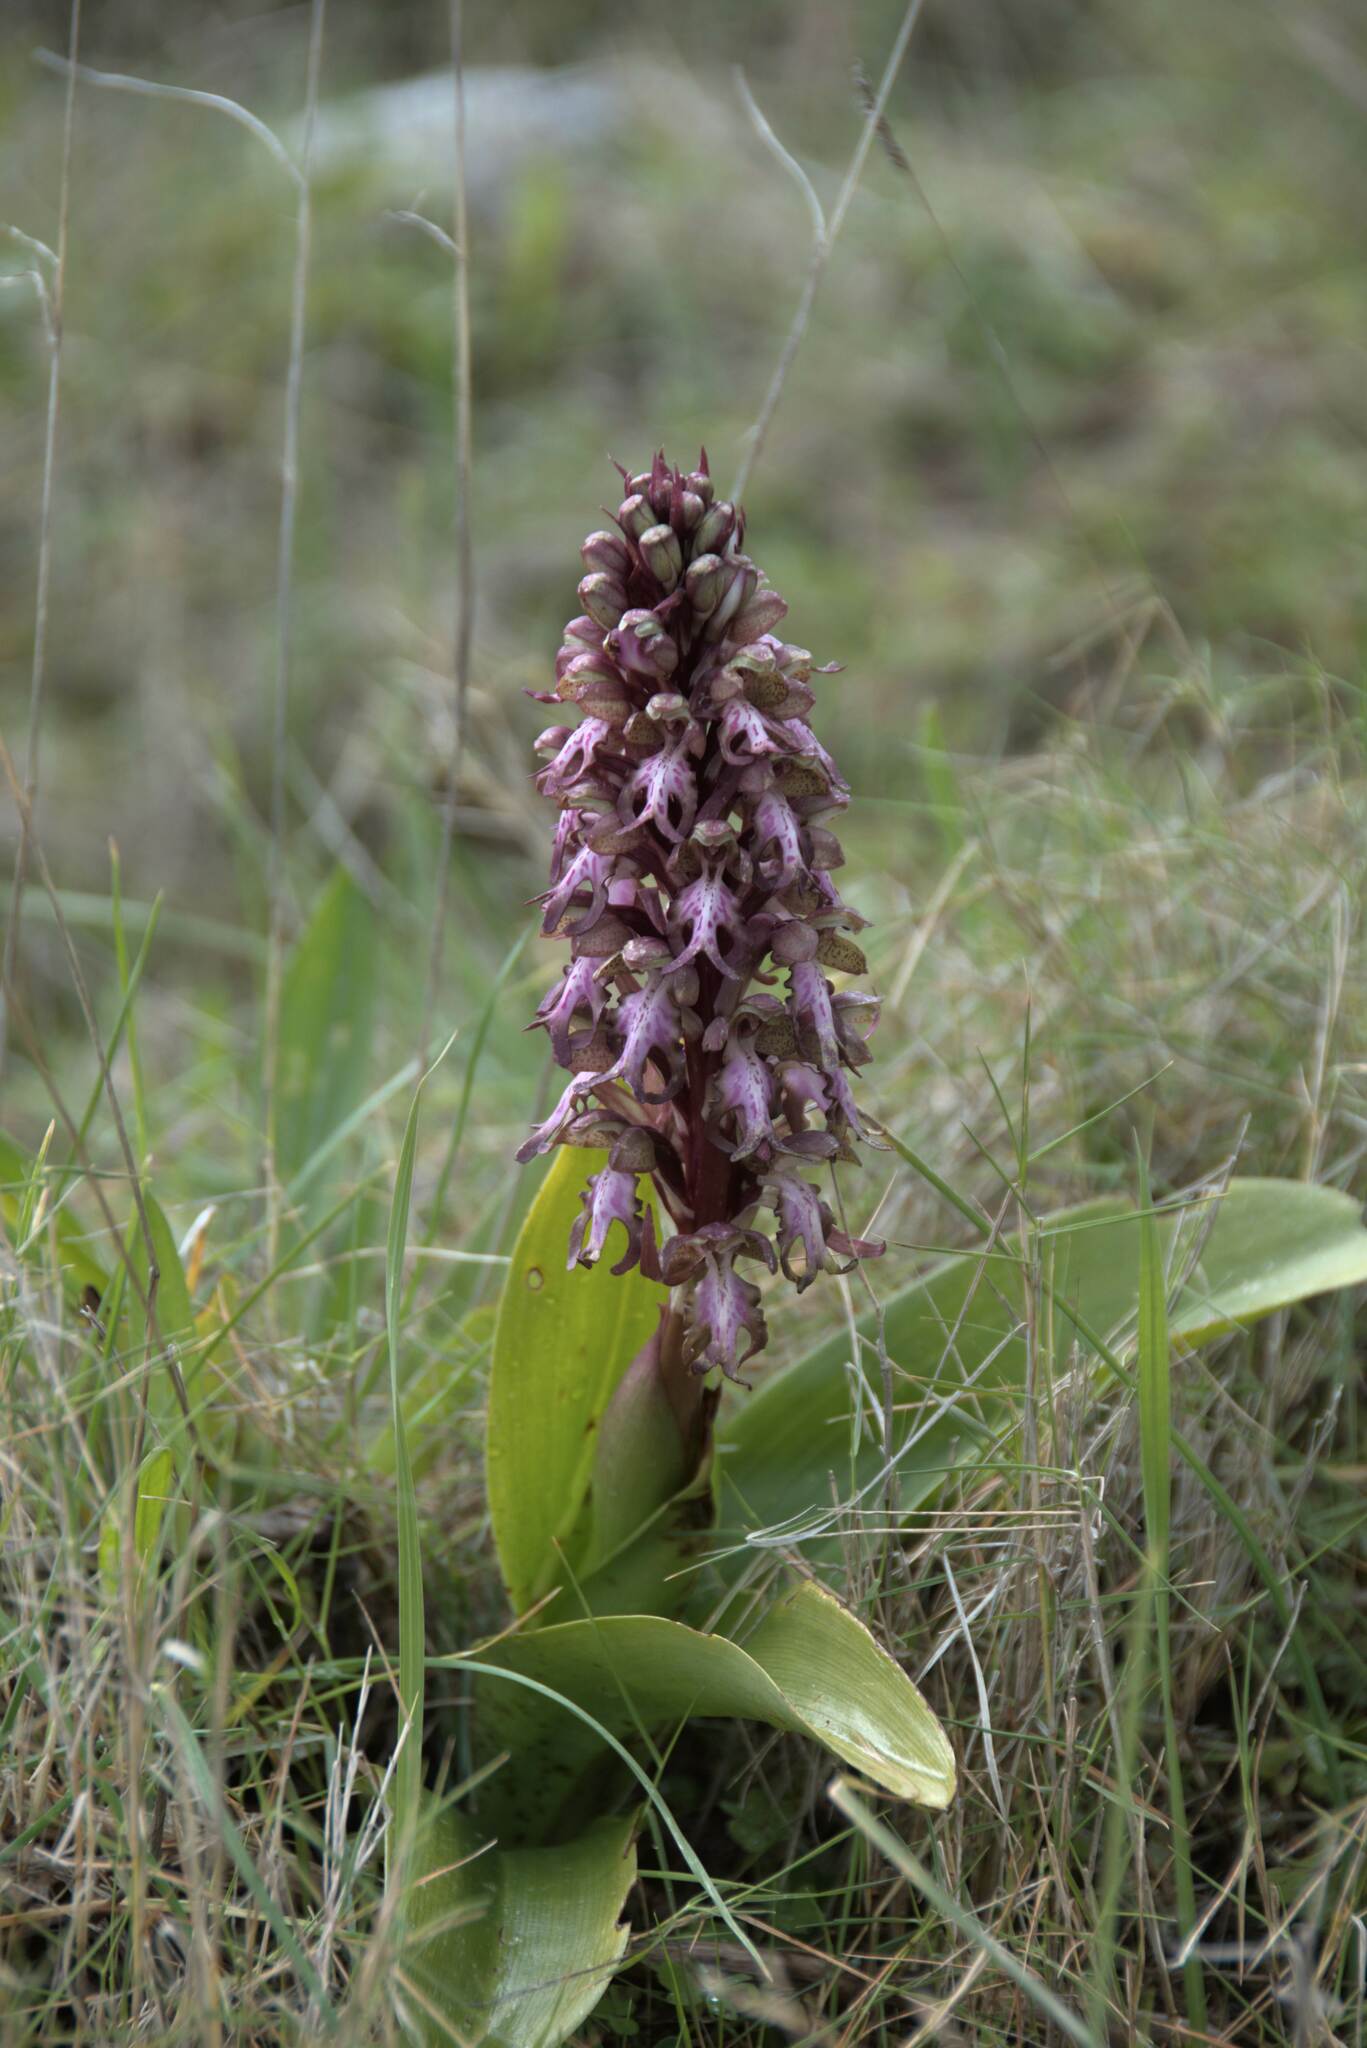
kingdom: Plantae
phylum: Tracheophyta
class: Liliopsida
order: Asparagales
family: Orchidaceae
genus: Himantoglossum
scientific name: Himantoglossum robertianum
